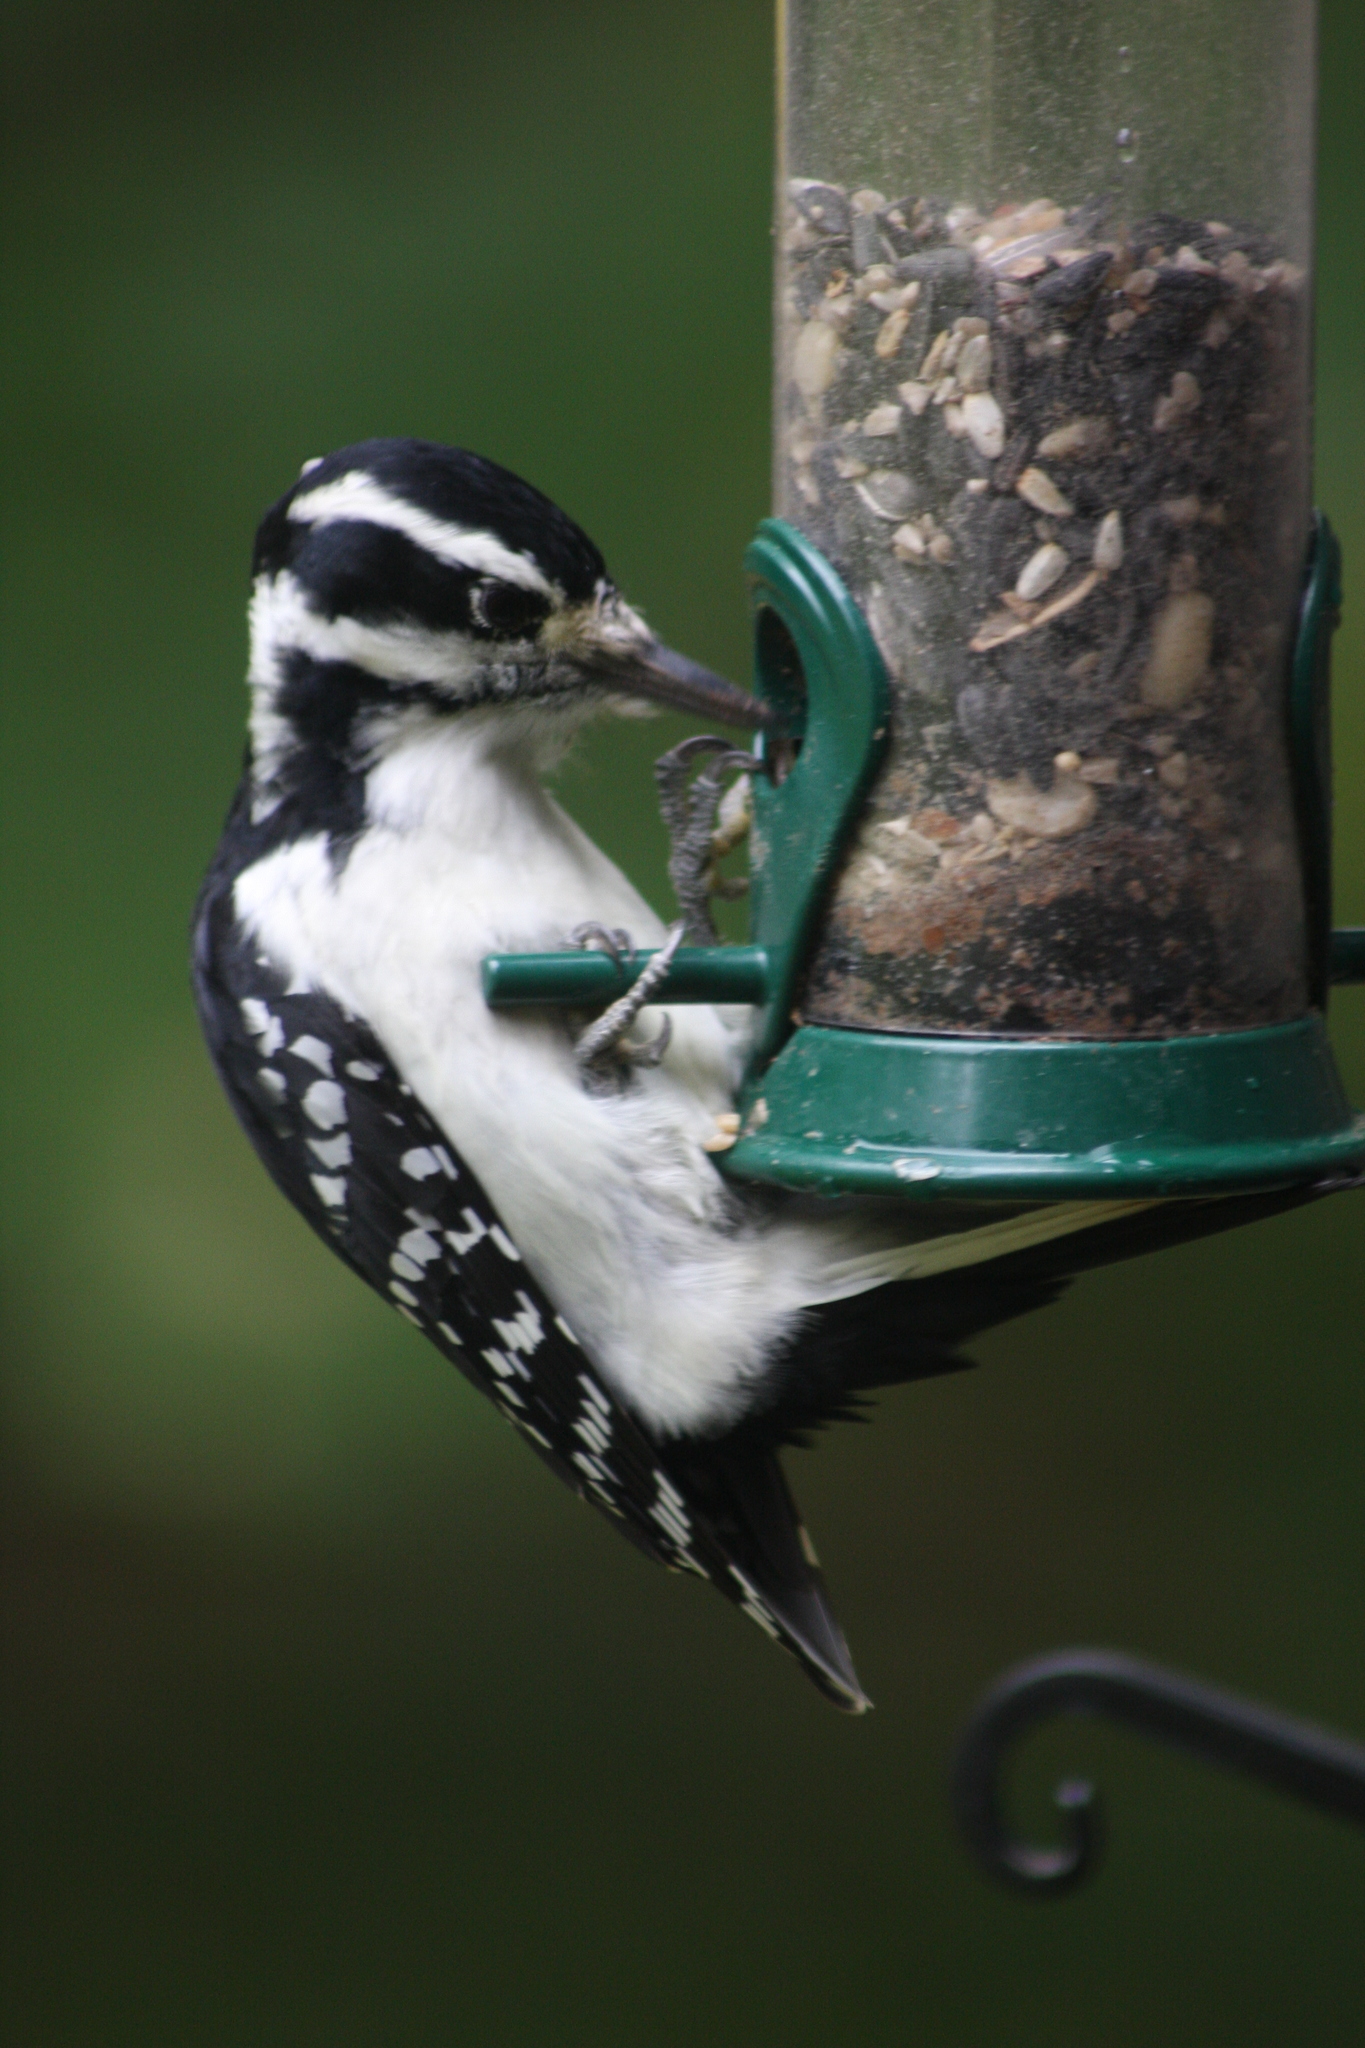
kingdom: Animalia
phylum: Chordata
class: Aves
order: Piciformes
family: Picidae
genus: Leuconotopicus
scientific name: Leuconotopicus villosus
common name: Hairy woodpecker
